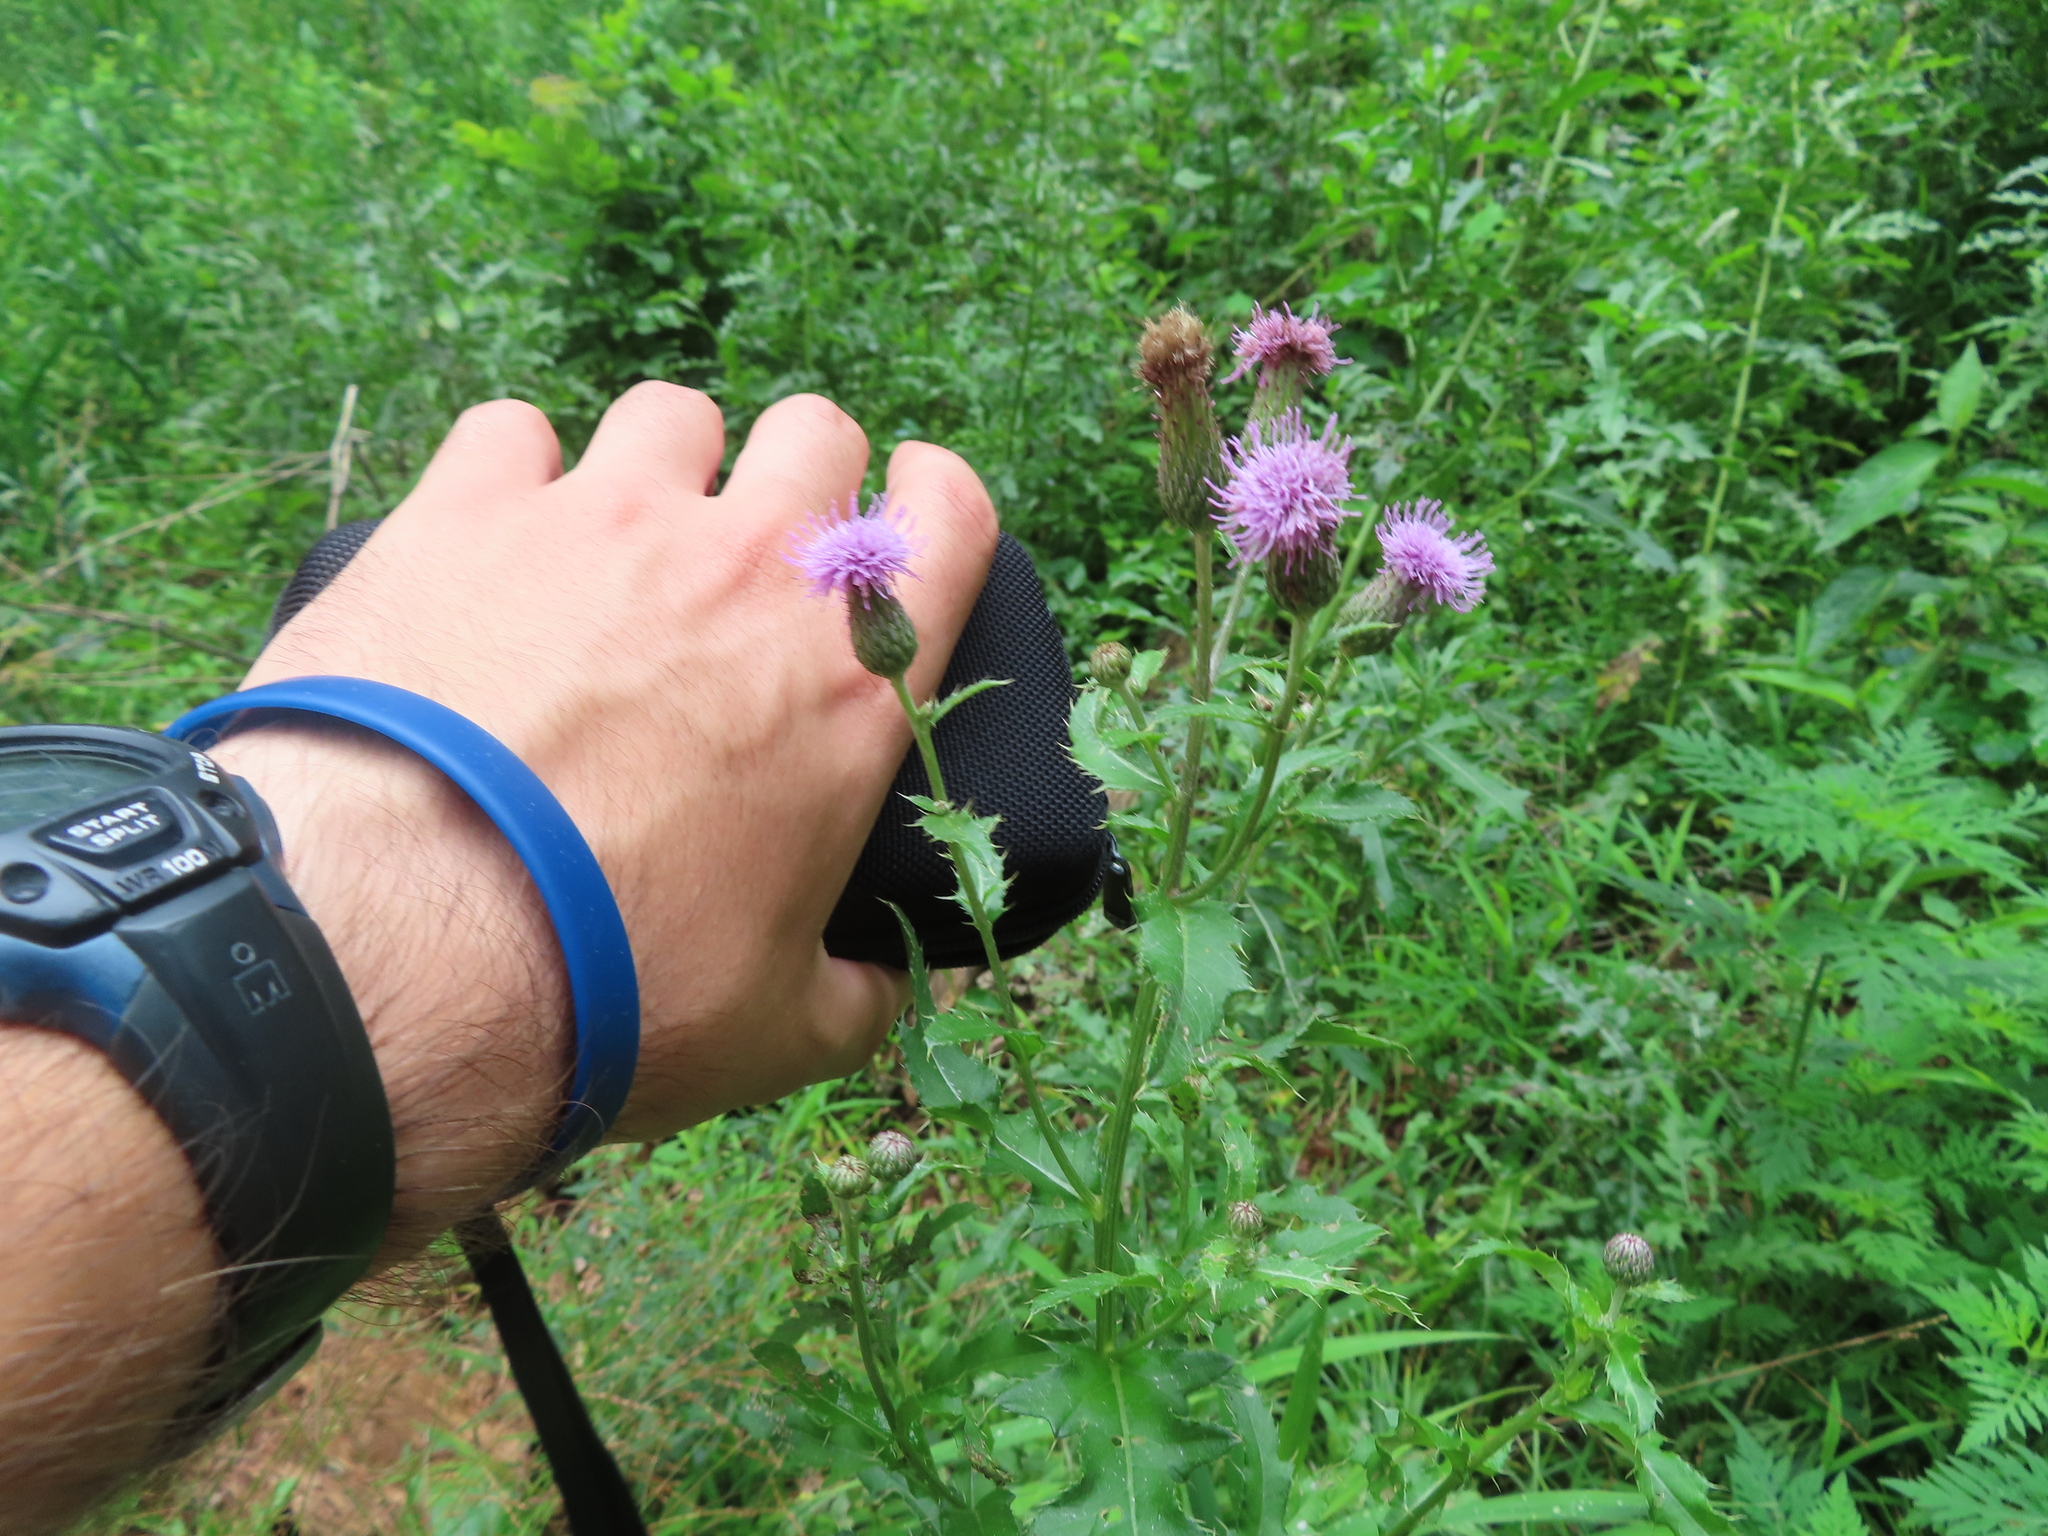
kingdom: Plantae
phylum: Tracheophyta
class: Magnoliopsida
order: Asterales
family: Asteraceae
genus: Cirsium
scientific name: Cirsium arvense
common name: Creeping thistle
